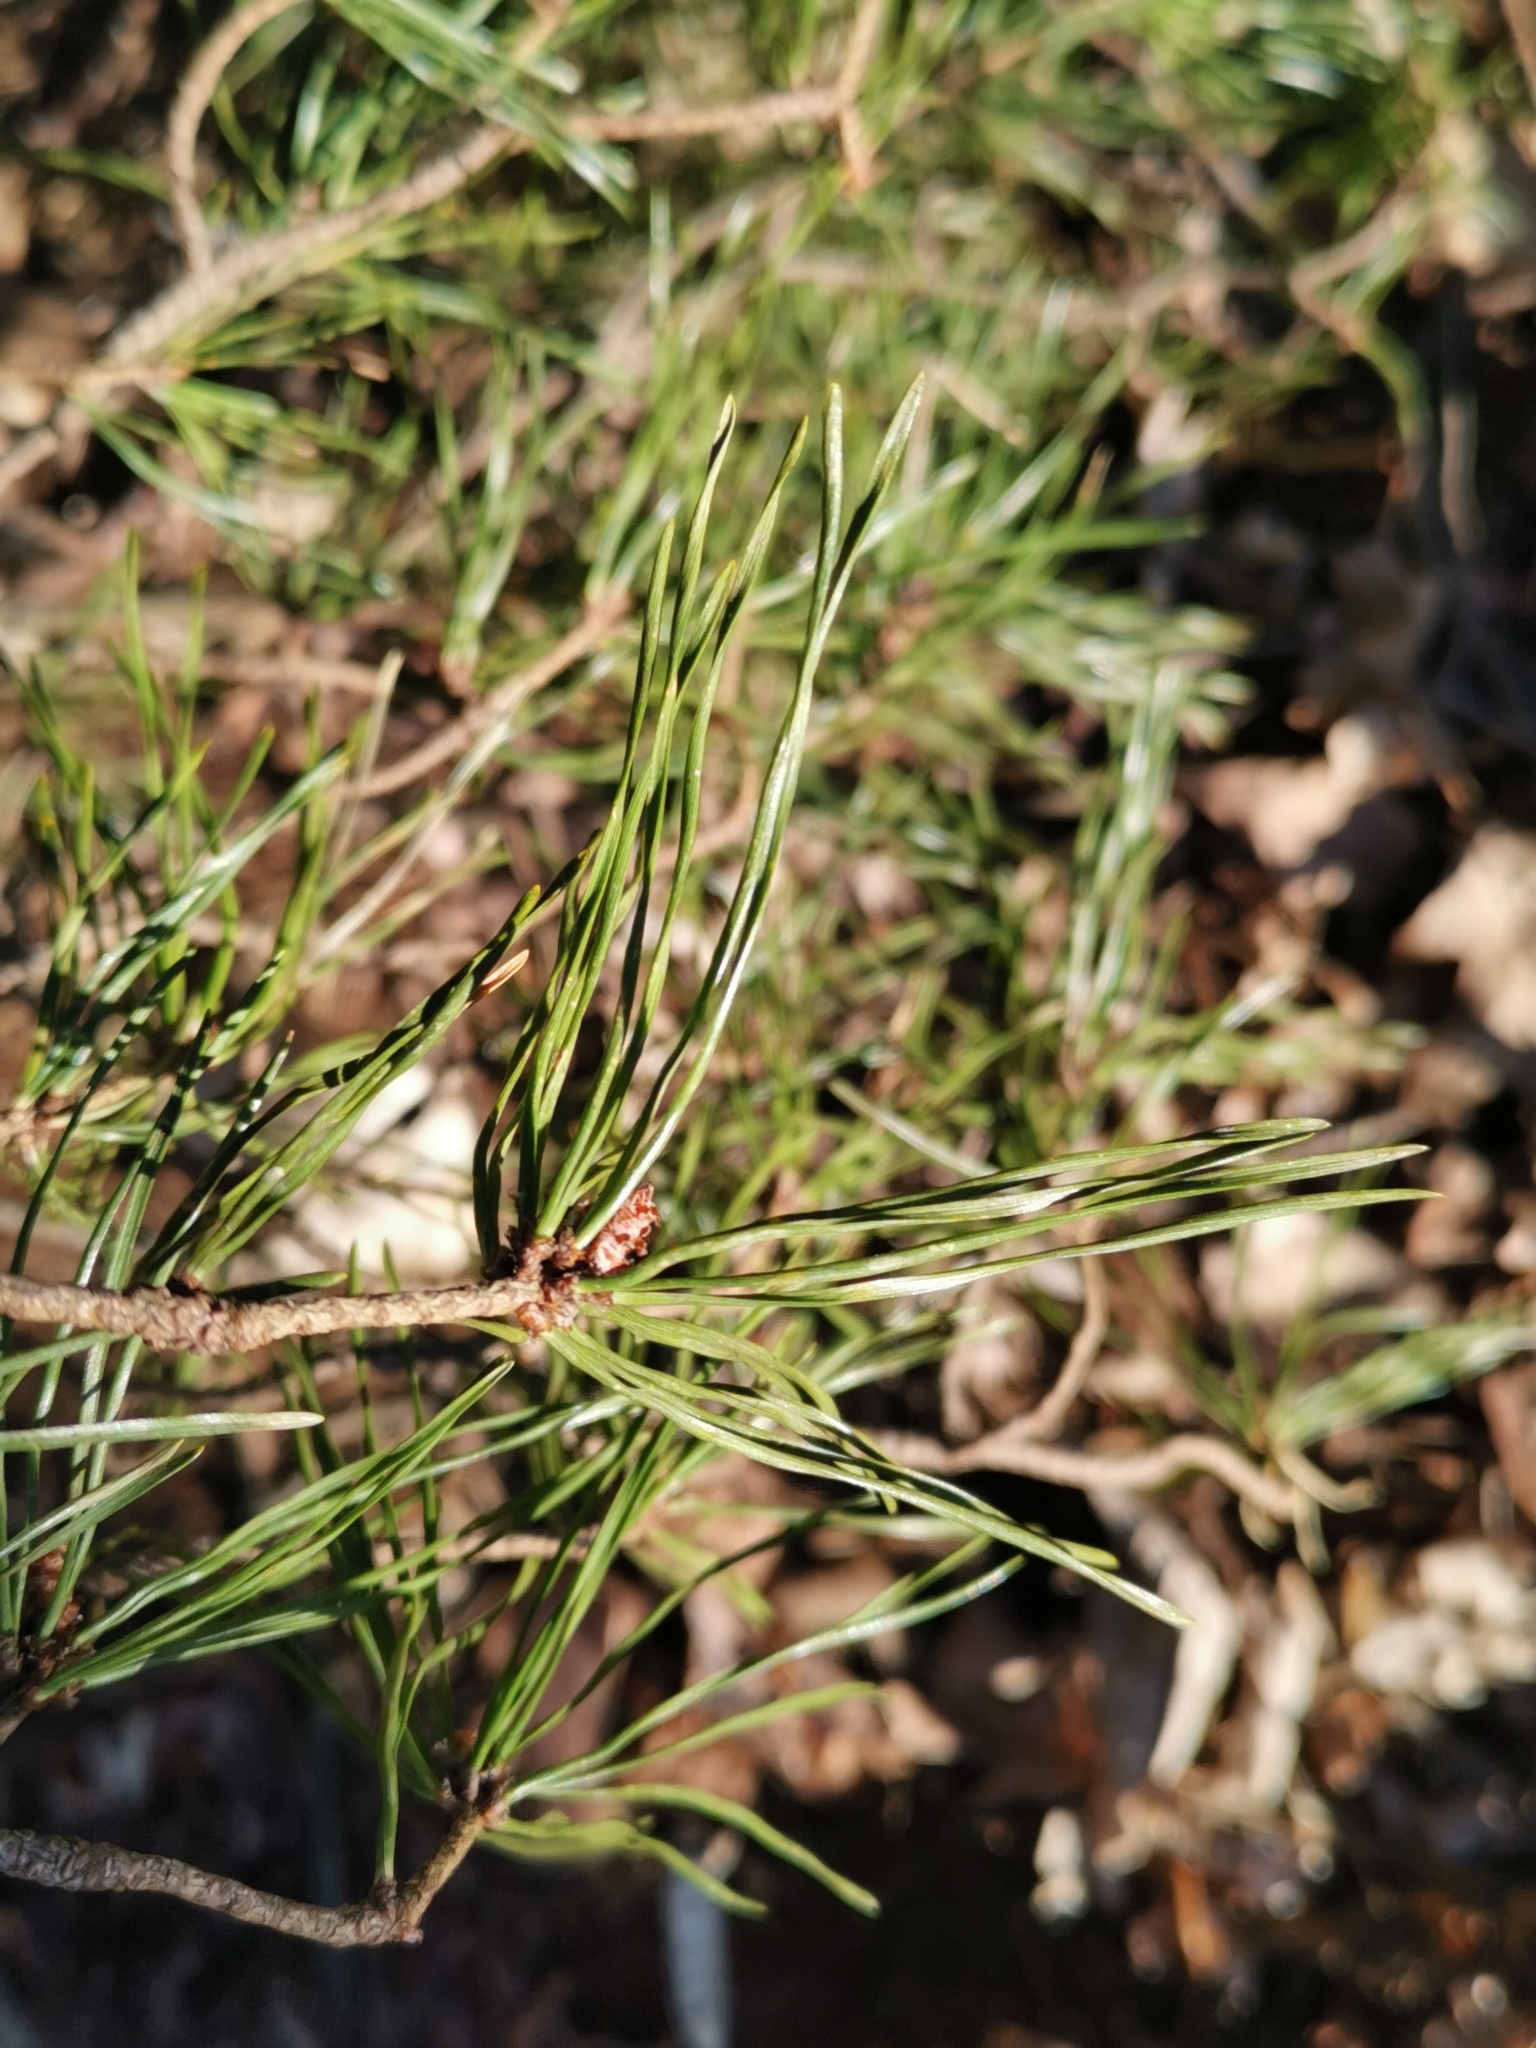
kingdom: Plantae
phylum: Tracheophyta
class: Pinopsida
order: Pinales
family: Pinaceae
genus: Pinus
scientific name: Pinus sylvestris
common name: Scots pine
